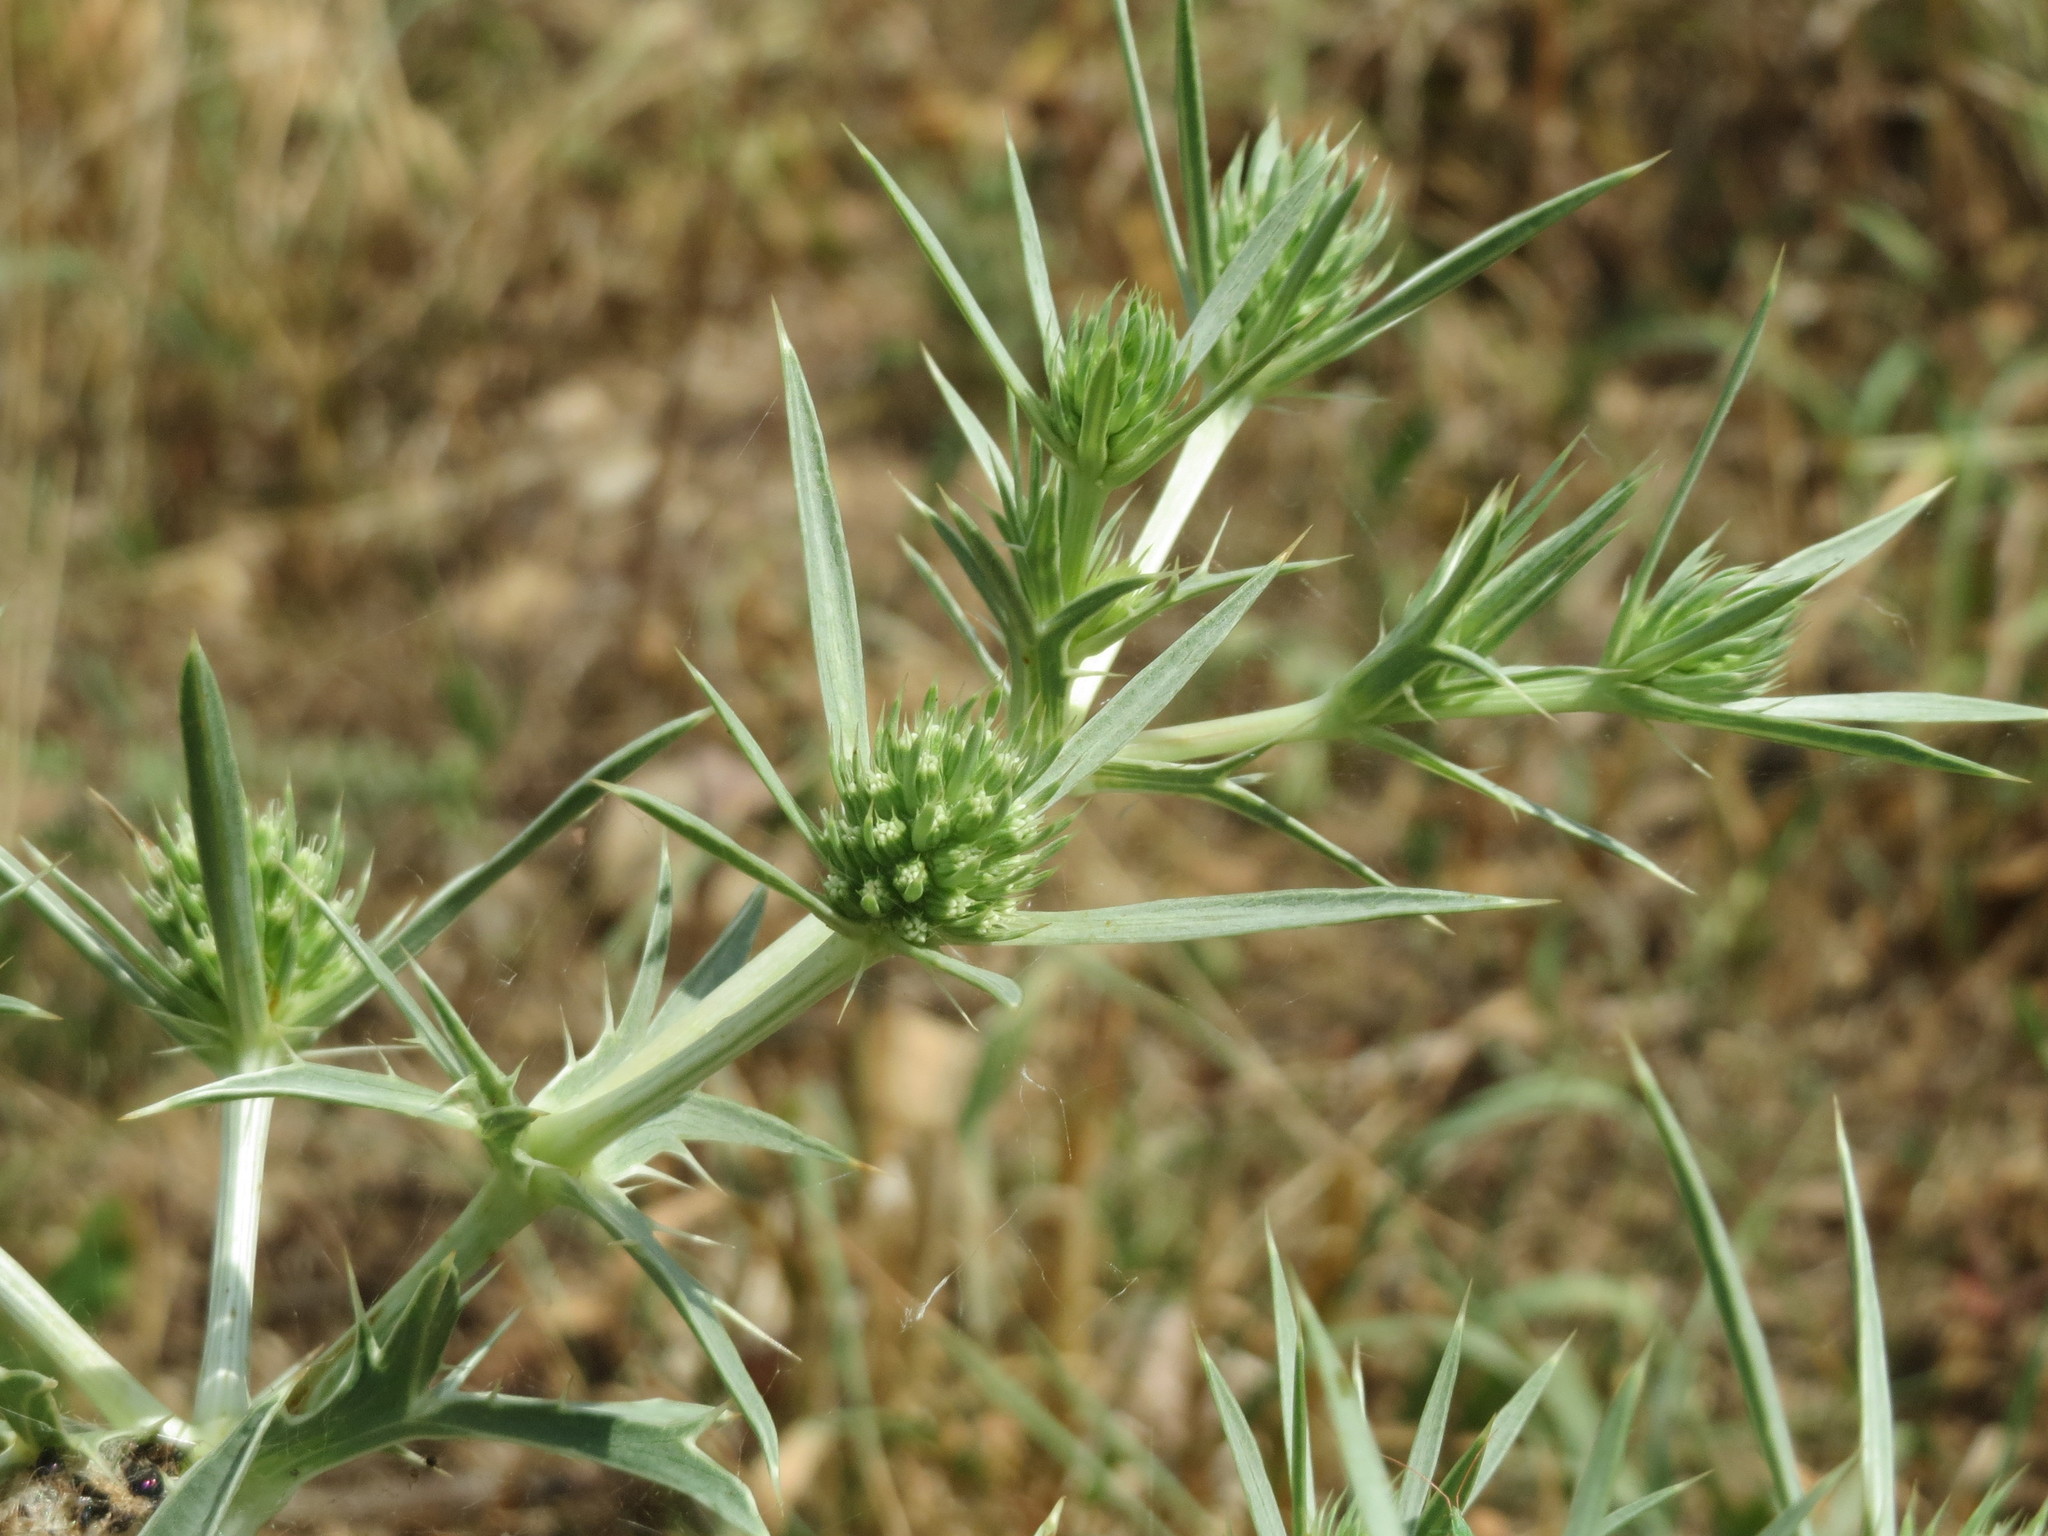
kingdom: Plantae
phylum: Tracheophyta
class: Magnoliopsida
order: Apiales
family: Apiaceae
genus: Eryngium
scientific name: Eryngium campestre
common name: Field eryngo
